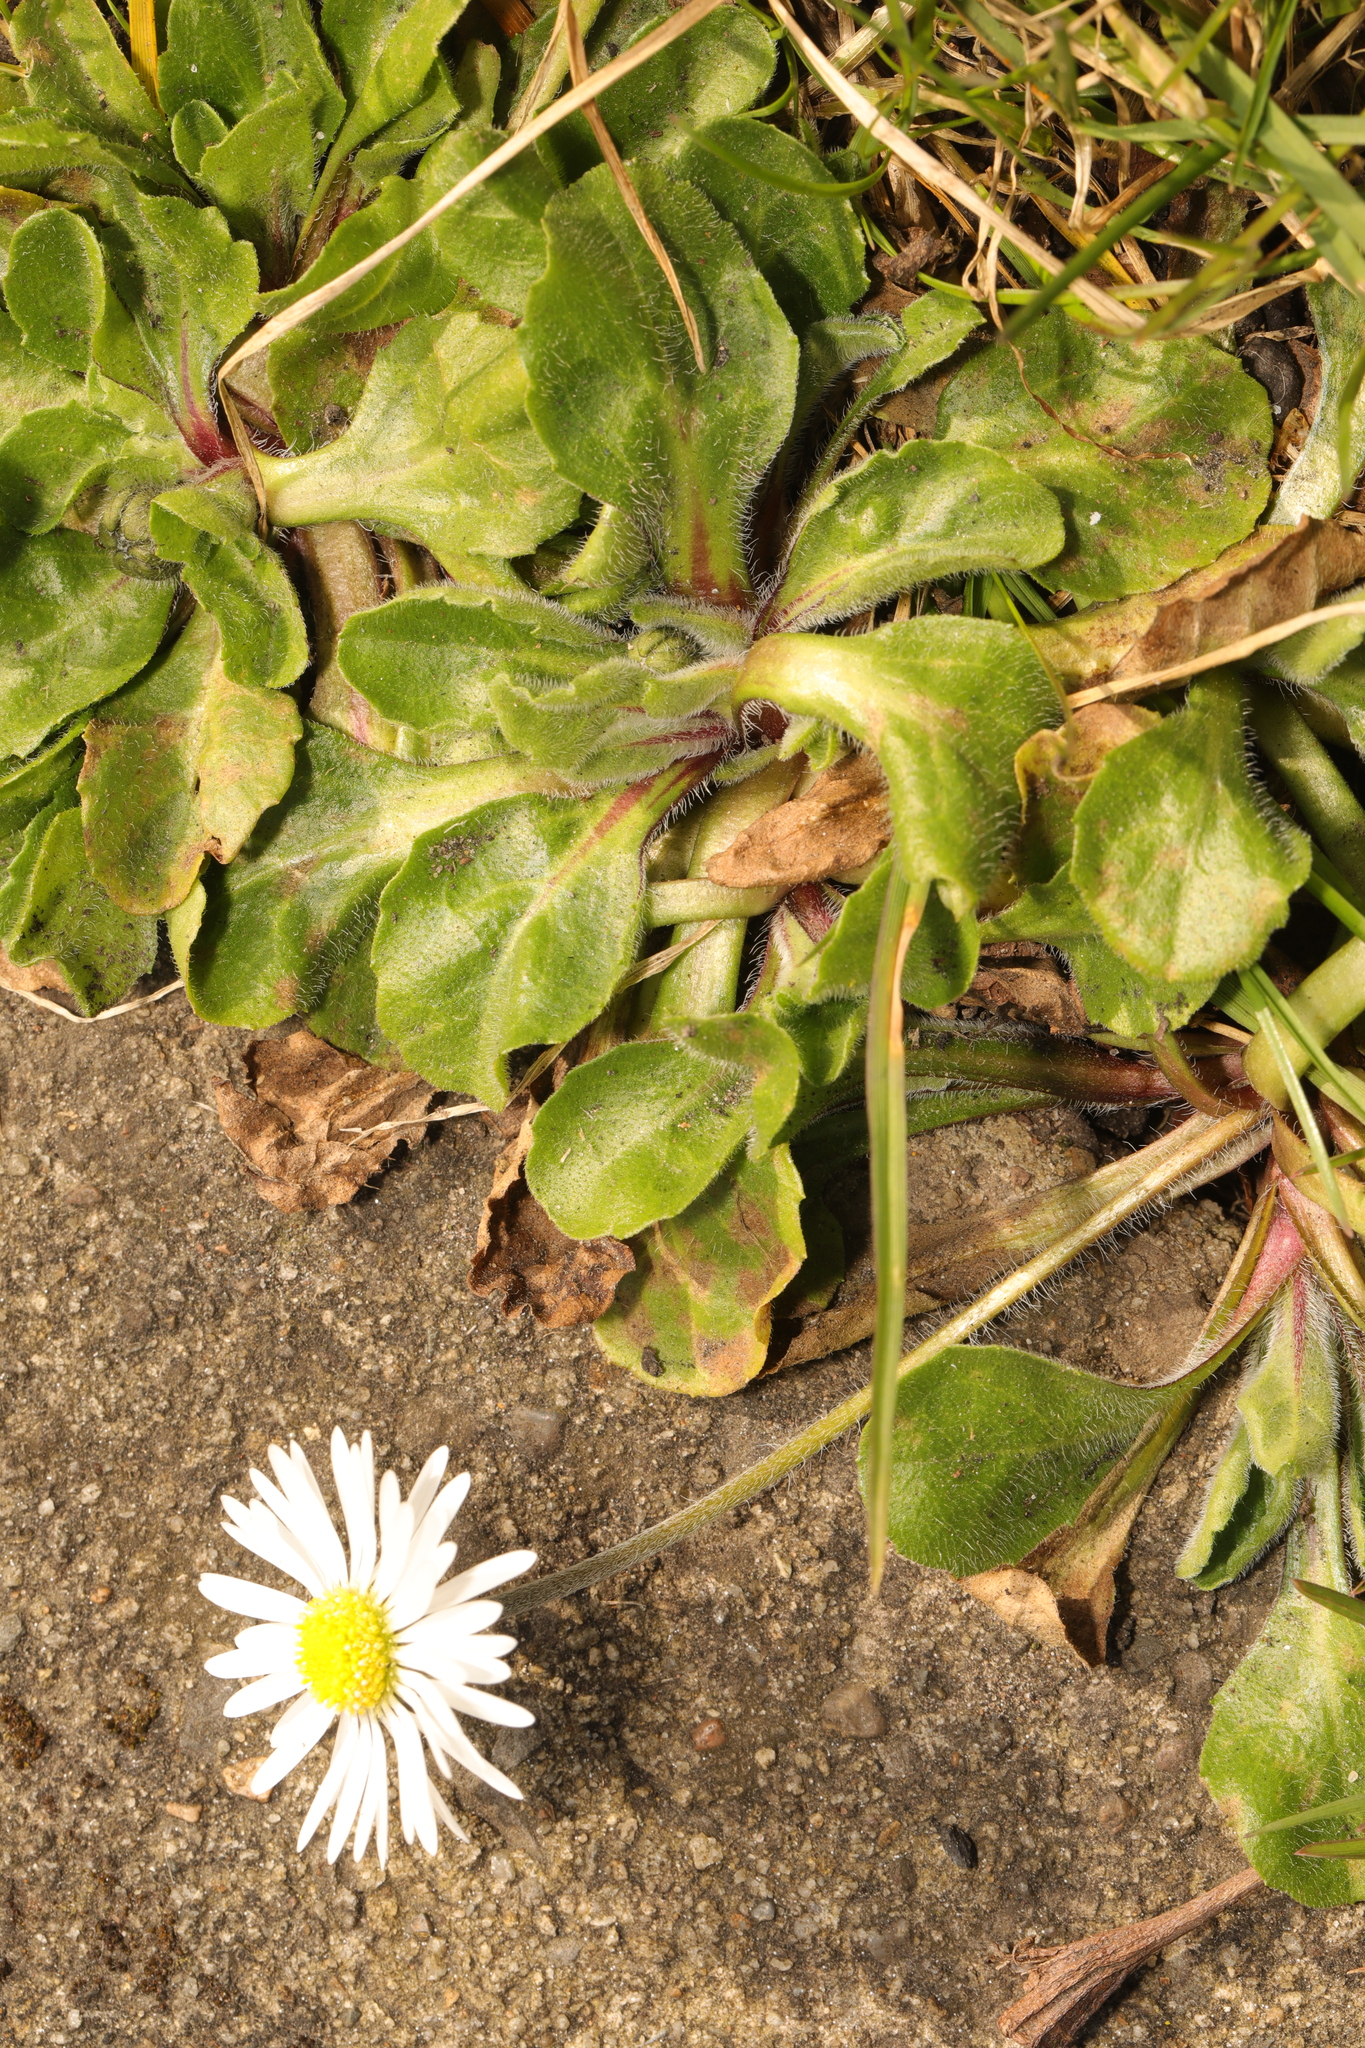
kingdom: Plantae
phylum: Tracheophyta
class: Magnoliopsida
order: Asterales
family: Asteraceae
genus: Bellis
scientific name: Bellis perennis
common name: Lawndaisy
